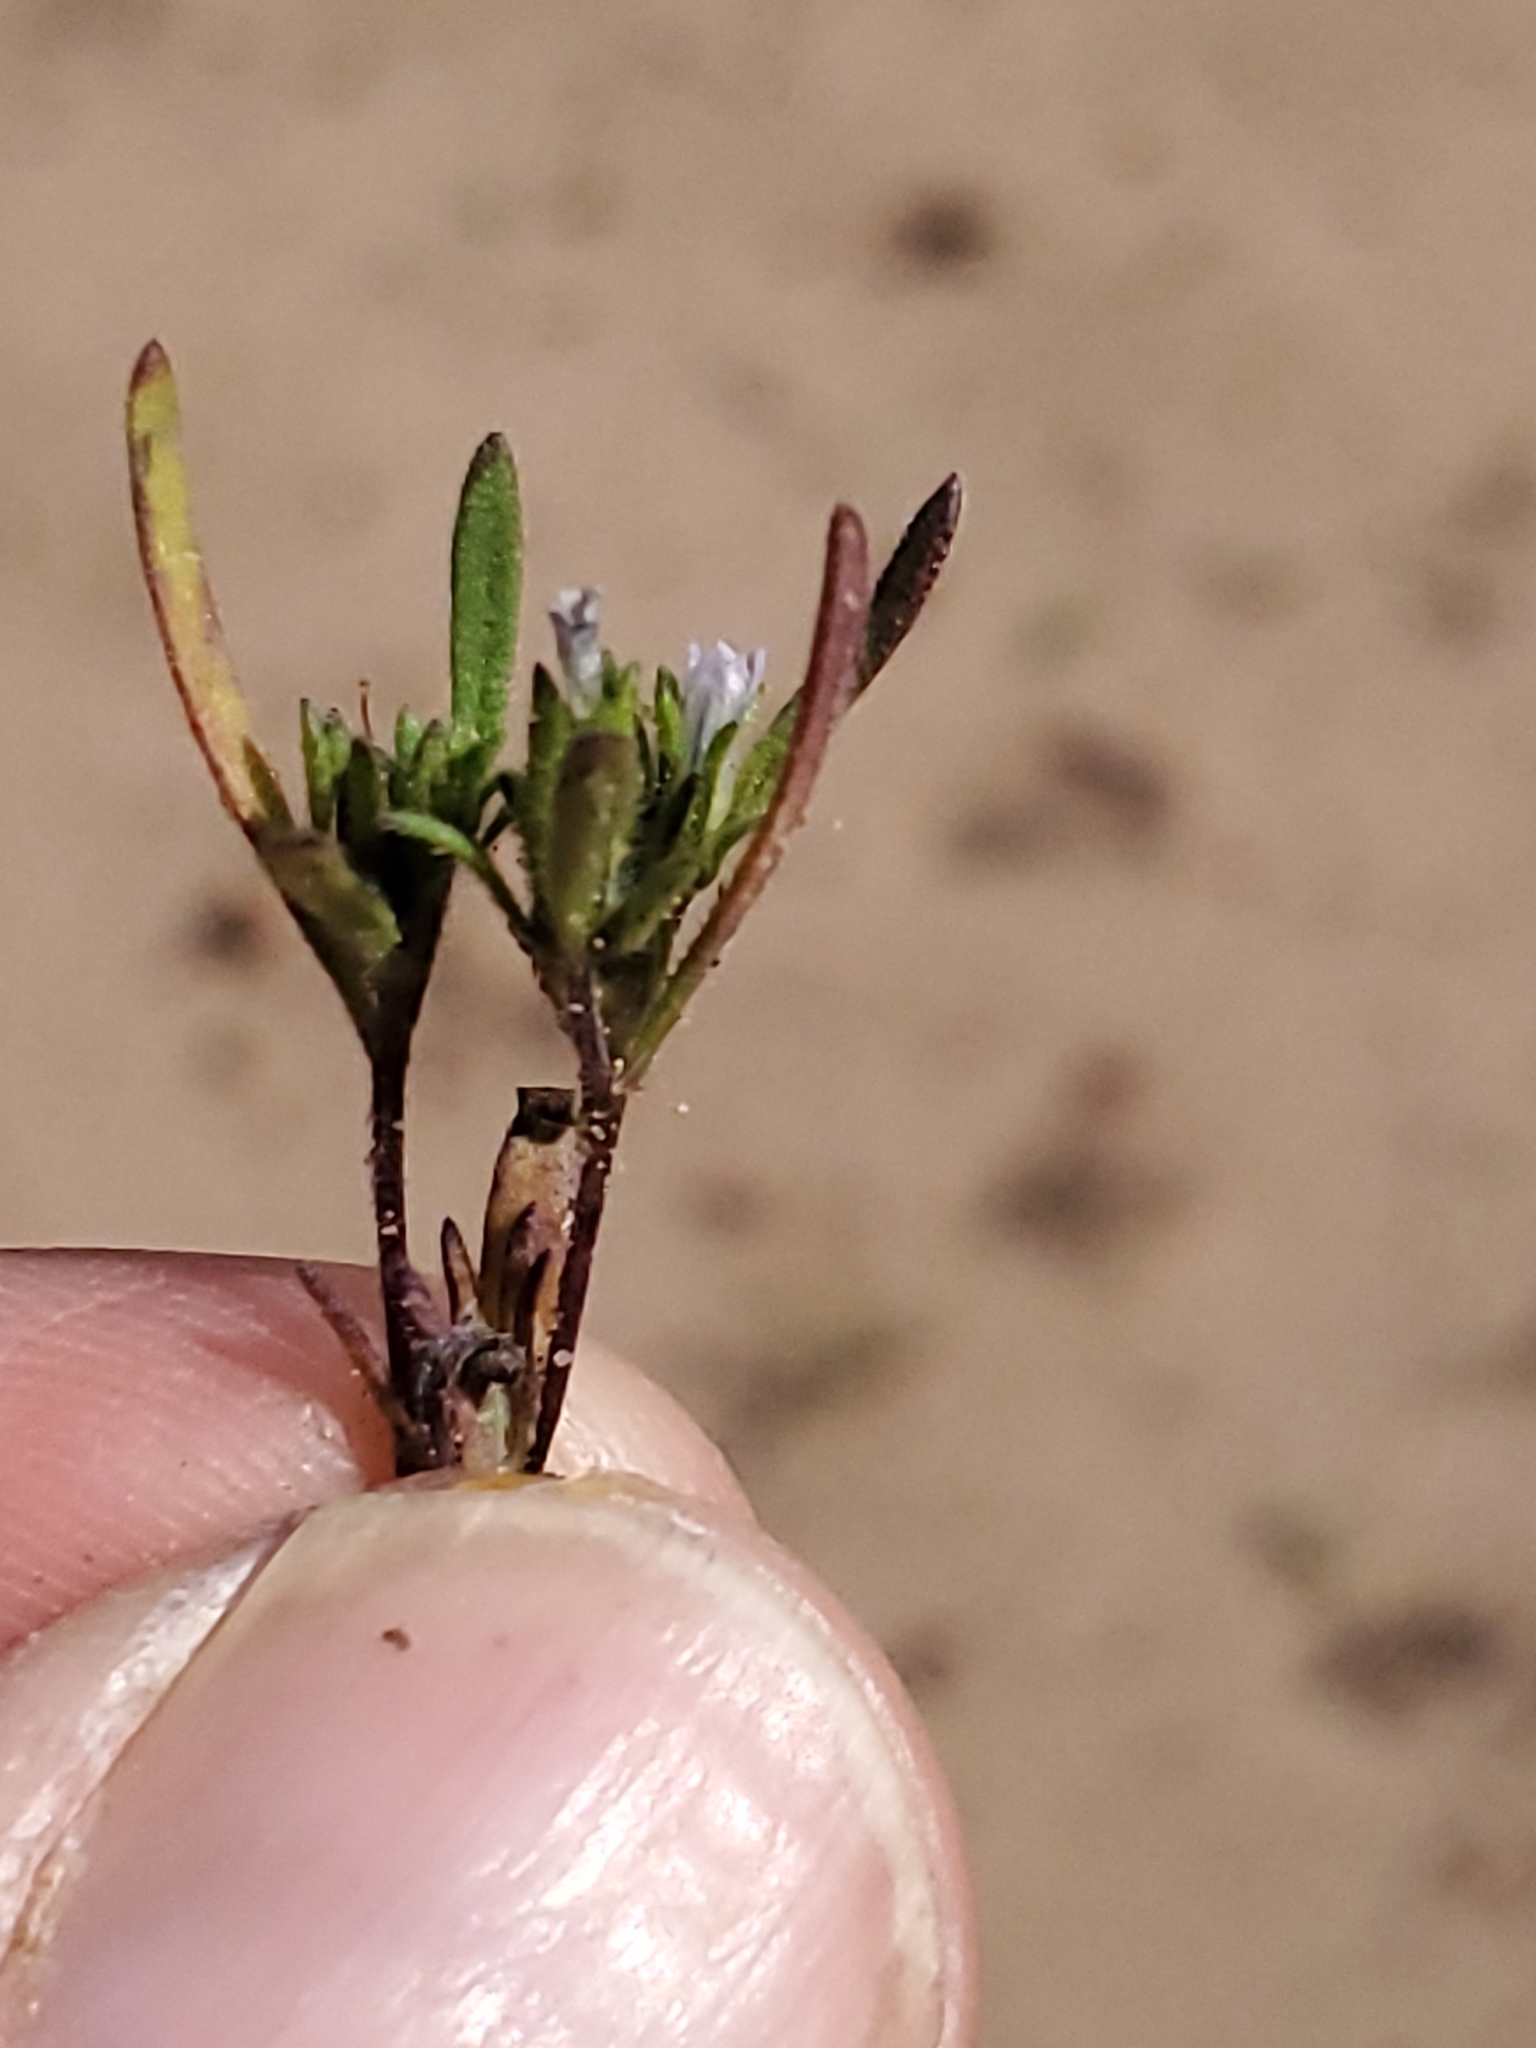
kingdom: Plantae
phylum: Tracheophyta
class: Magnoliopsida
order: Boraginales
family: Namaceae
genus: Nama
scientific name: Nama dichotoma
